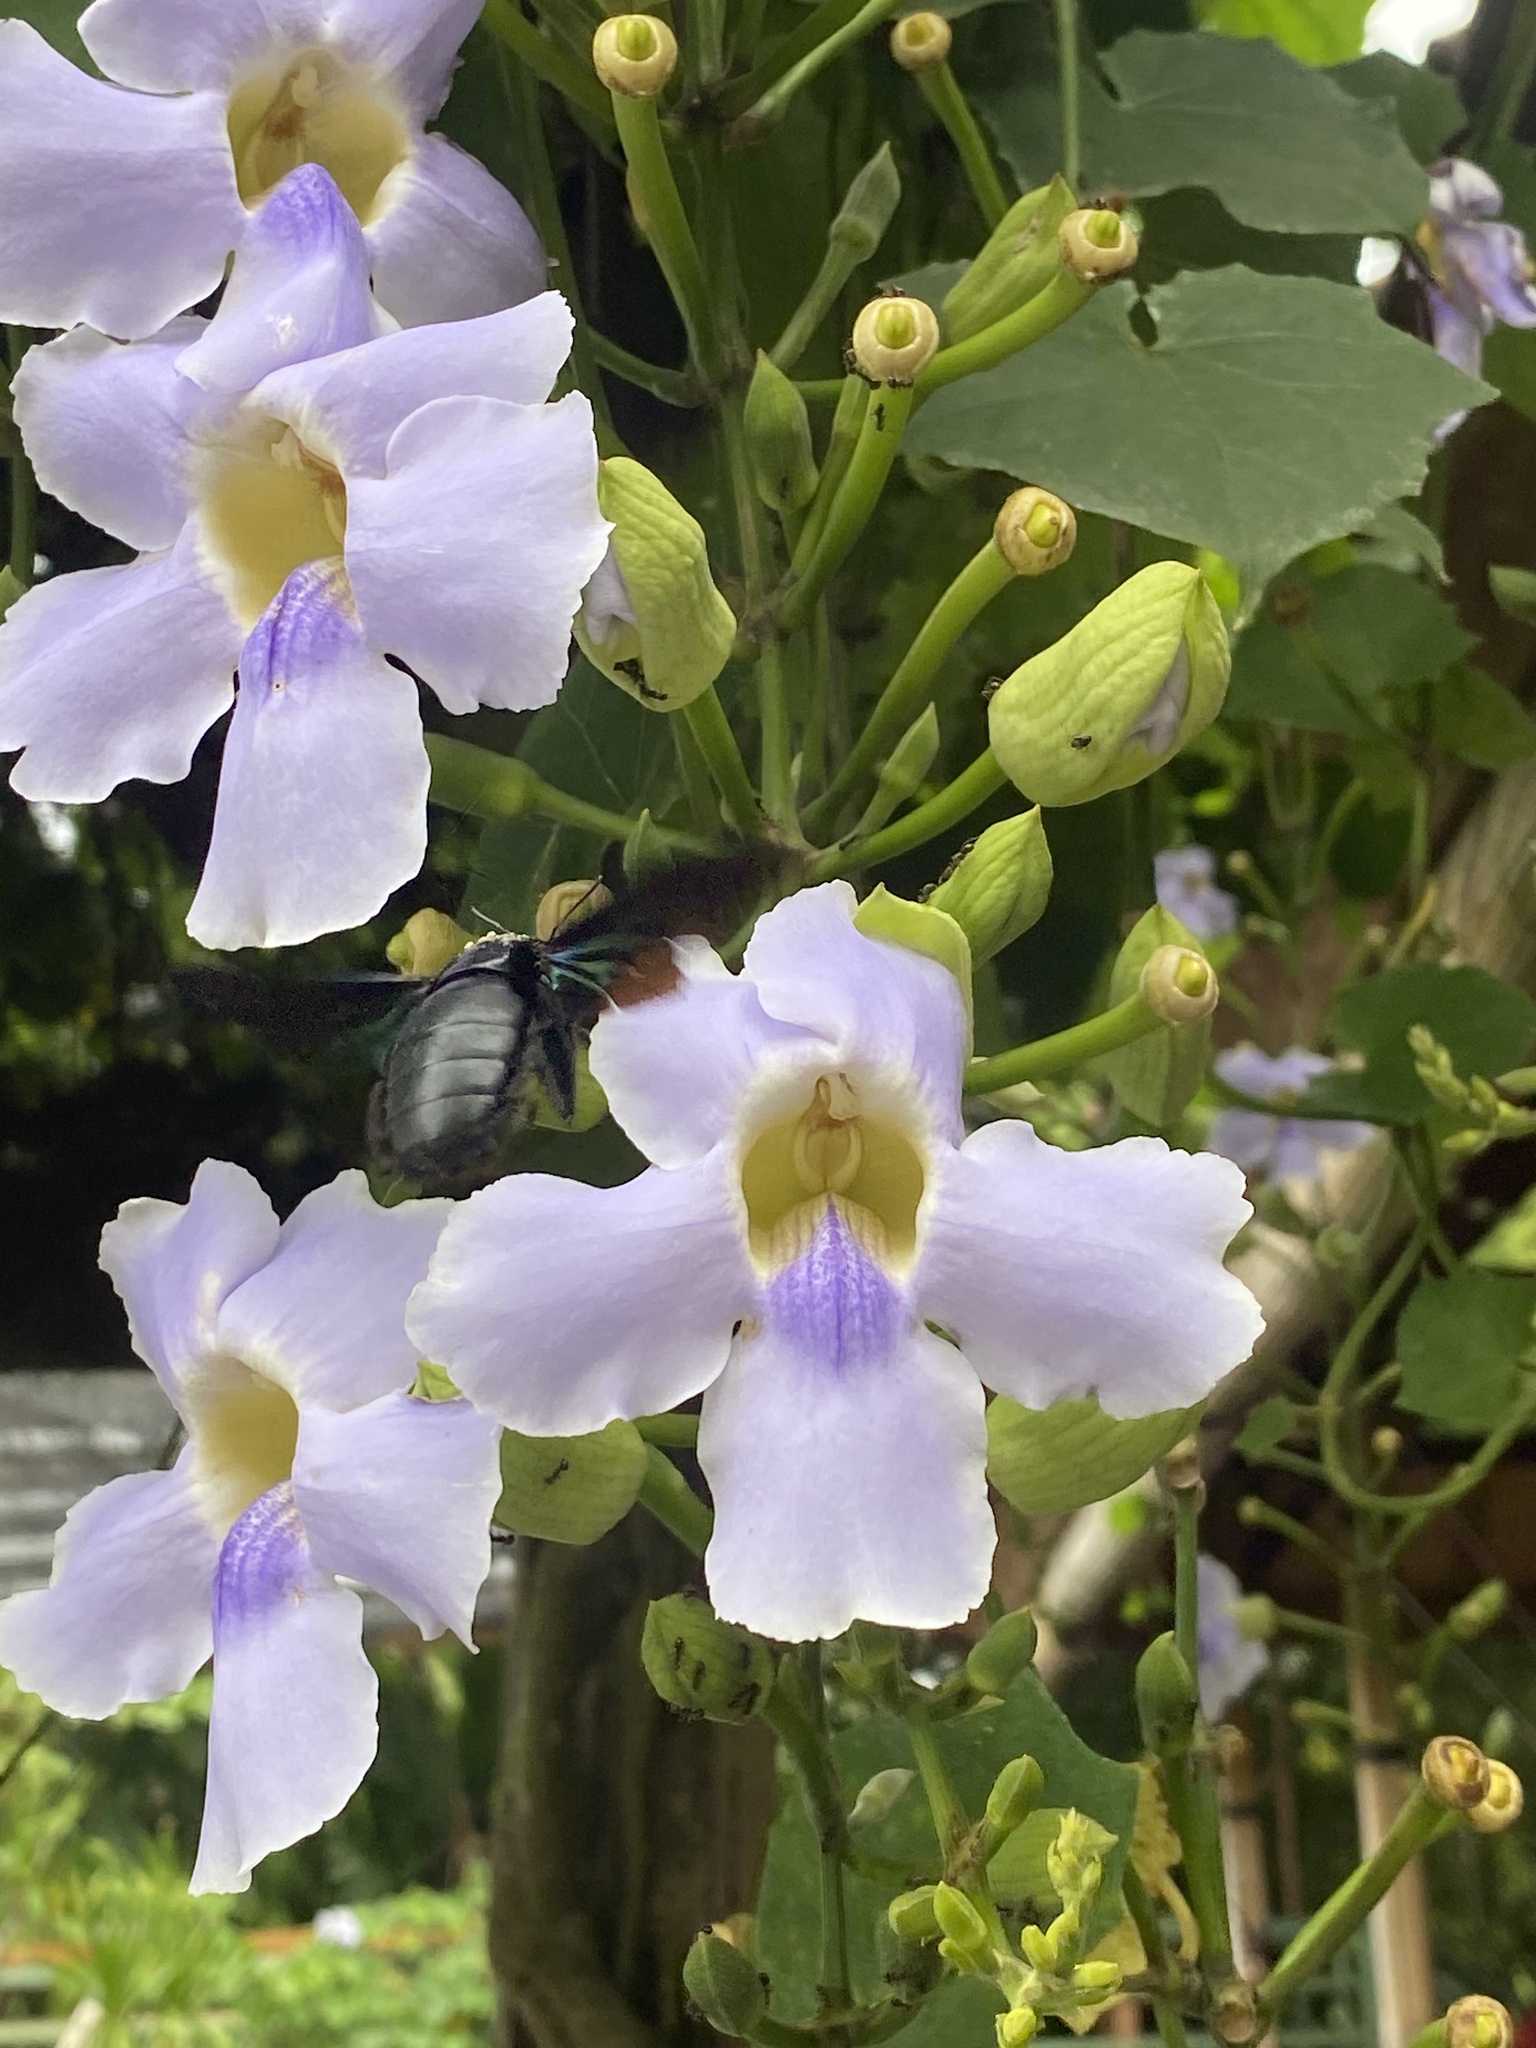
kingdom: Plantae
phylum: Tracheophyta
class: Magnoliopsida
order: Lamiales
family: Acanthaceae
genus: Thunbergia
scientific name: Thunbergia grandiflora
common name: Bengal trumpet
